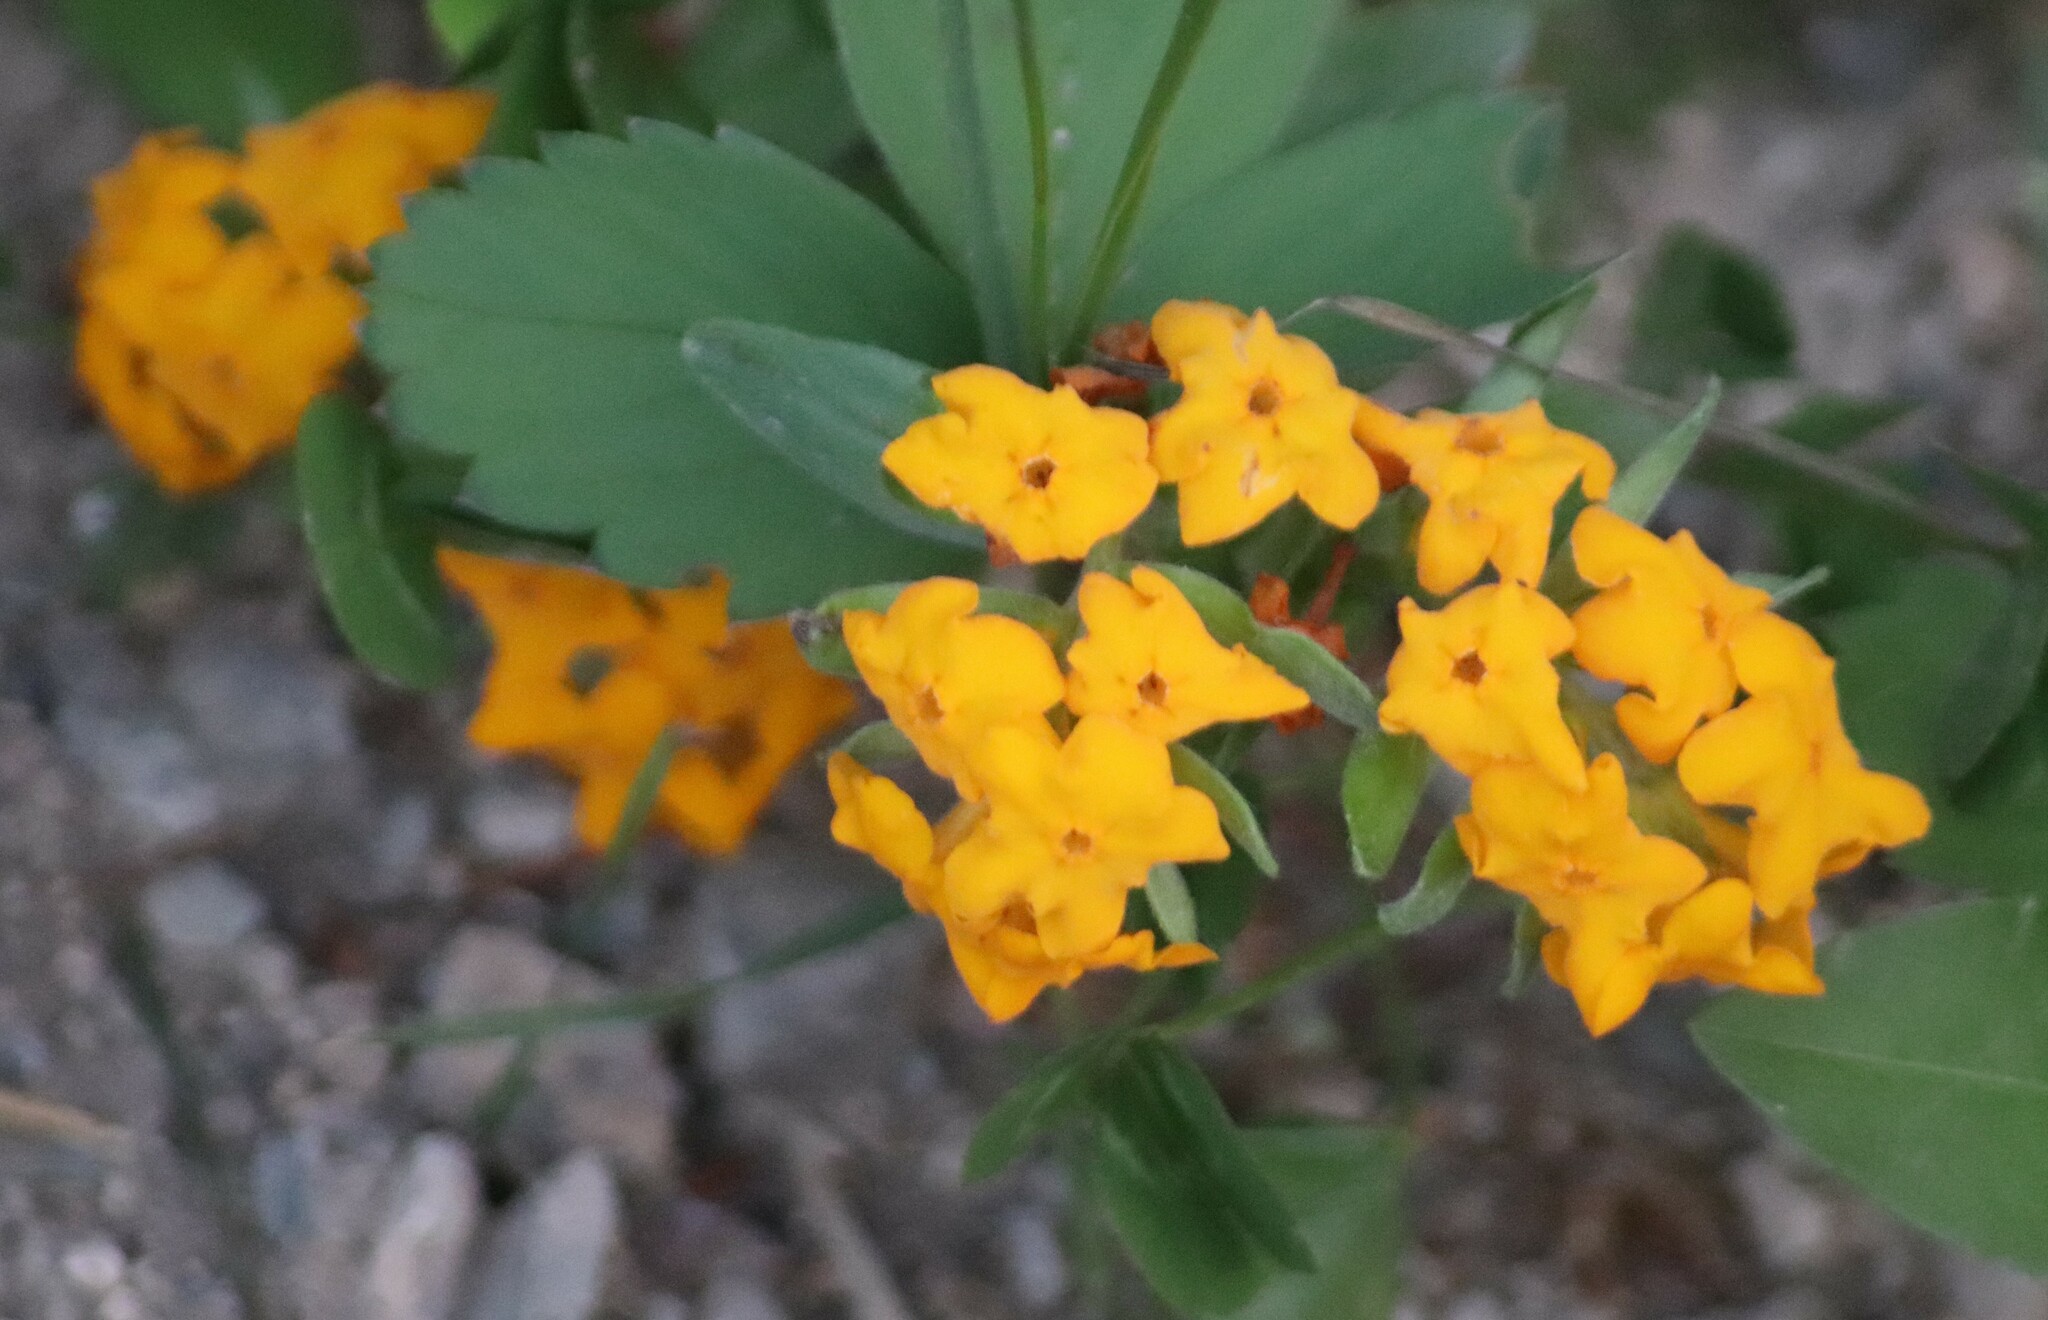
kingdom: Plantae
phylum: Tracheophyta
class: Magnoliopsida
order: Boraginales
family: Boraginaceae
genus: Lithospermum
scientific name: Lithospermum canescens
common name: Hoary puccoon
